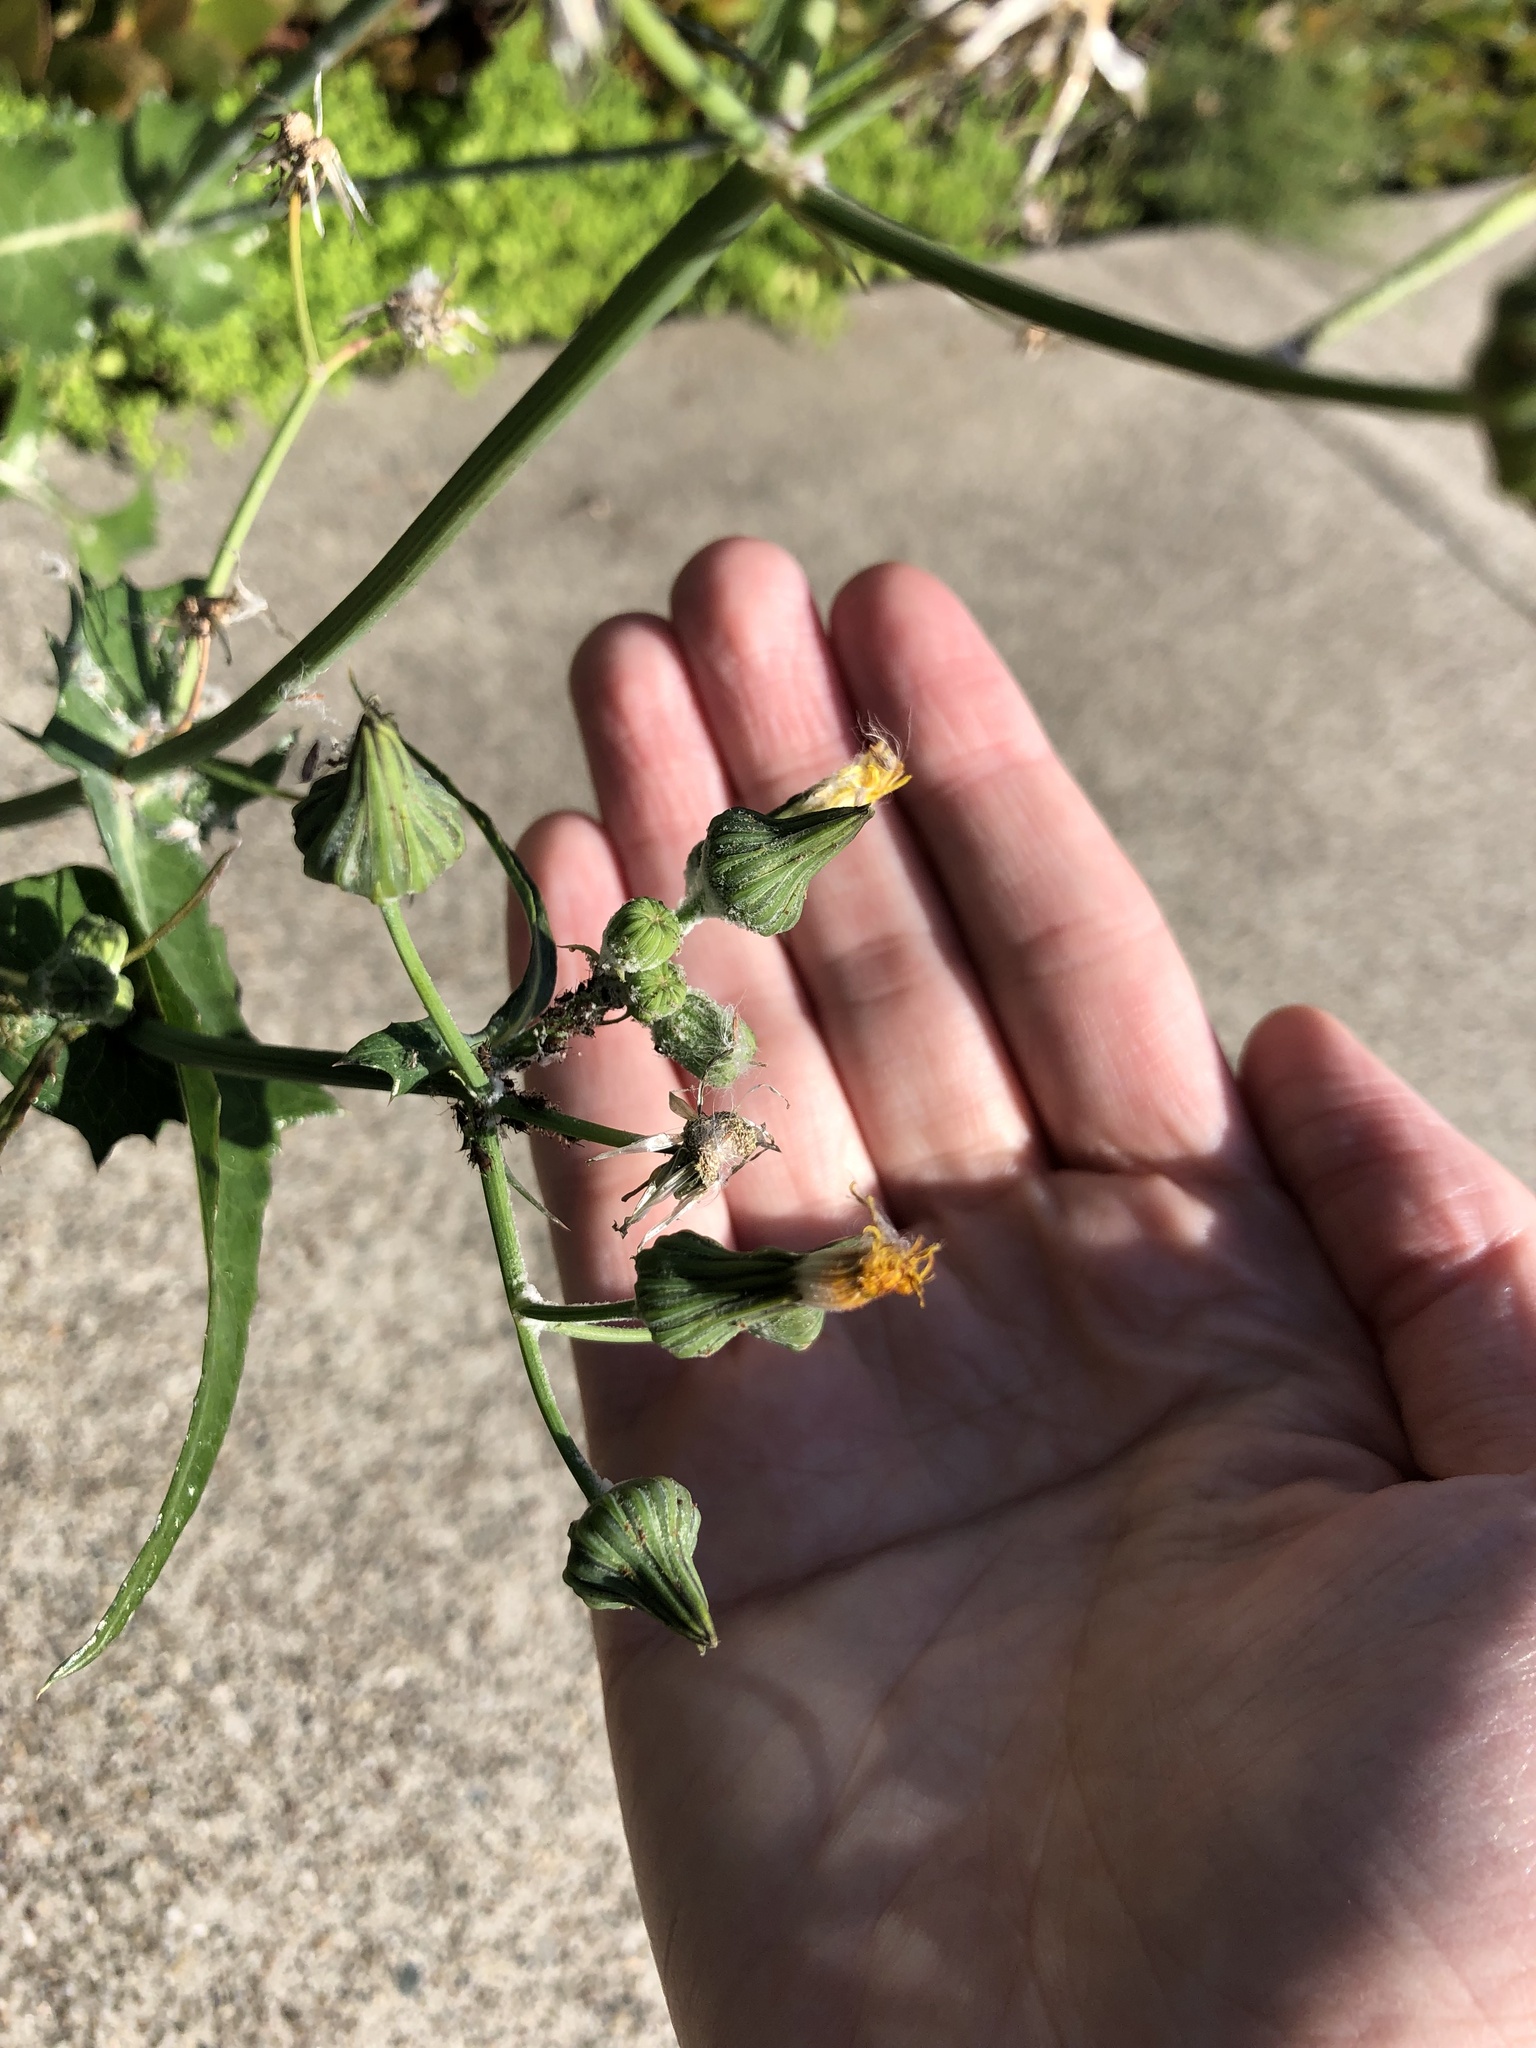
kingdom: Plantae
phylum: Tracheophyta
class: Magnoliopsida
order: Asterales
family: Asteraceae
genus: Sonchus
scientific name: Sonchus oleraceus
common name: Common sowthistle
